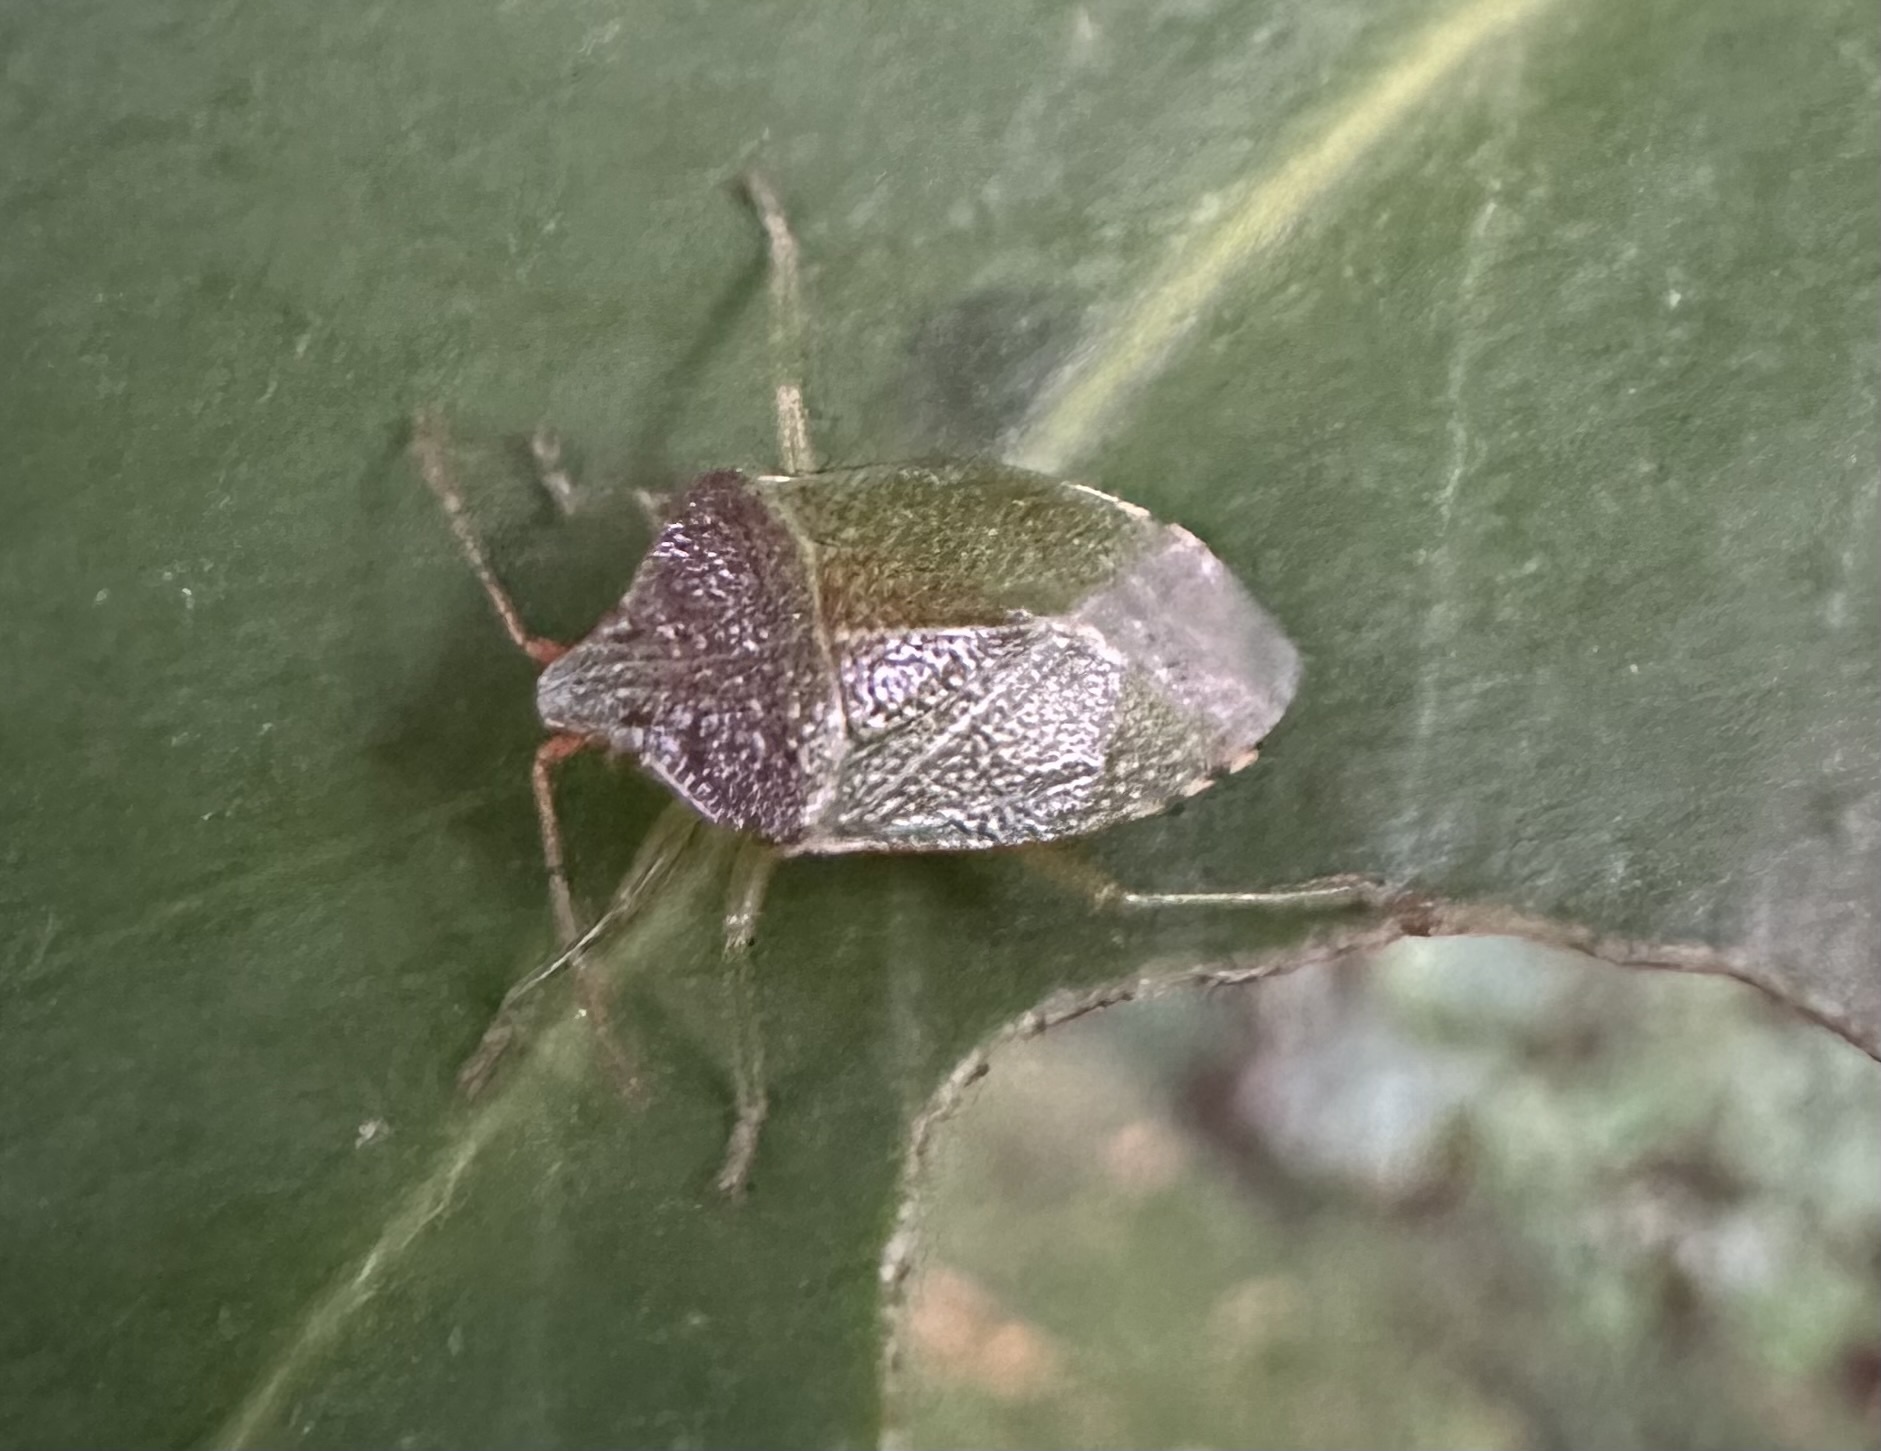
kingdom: Animalia
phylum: Arthropoda
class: Insecta
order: Hemiptera
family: Acanthosomatidae
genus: Sinopla
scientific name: Sinopla perpunctatus
